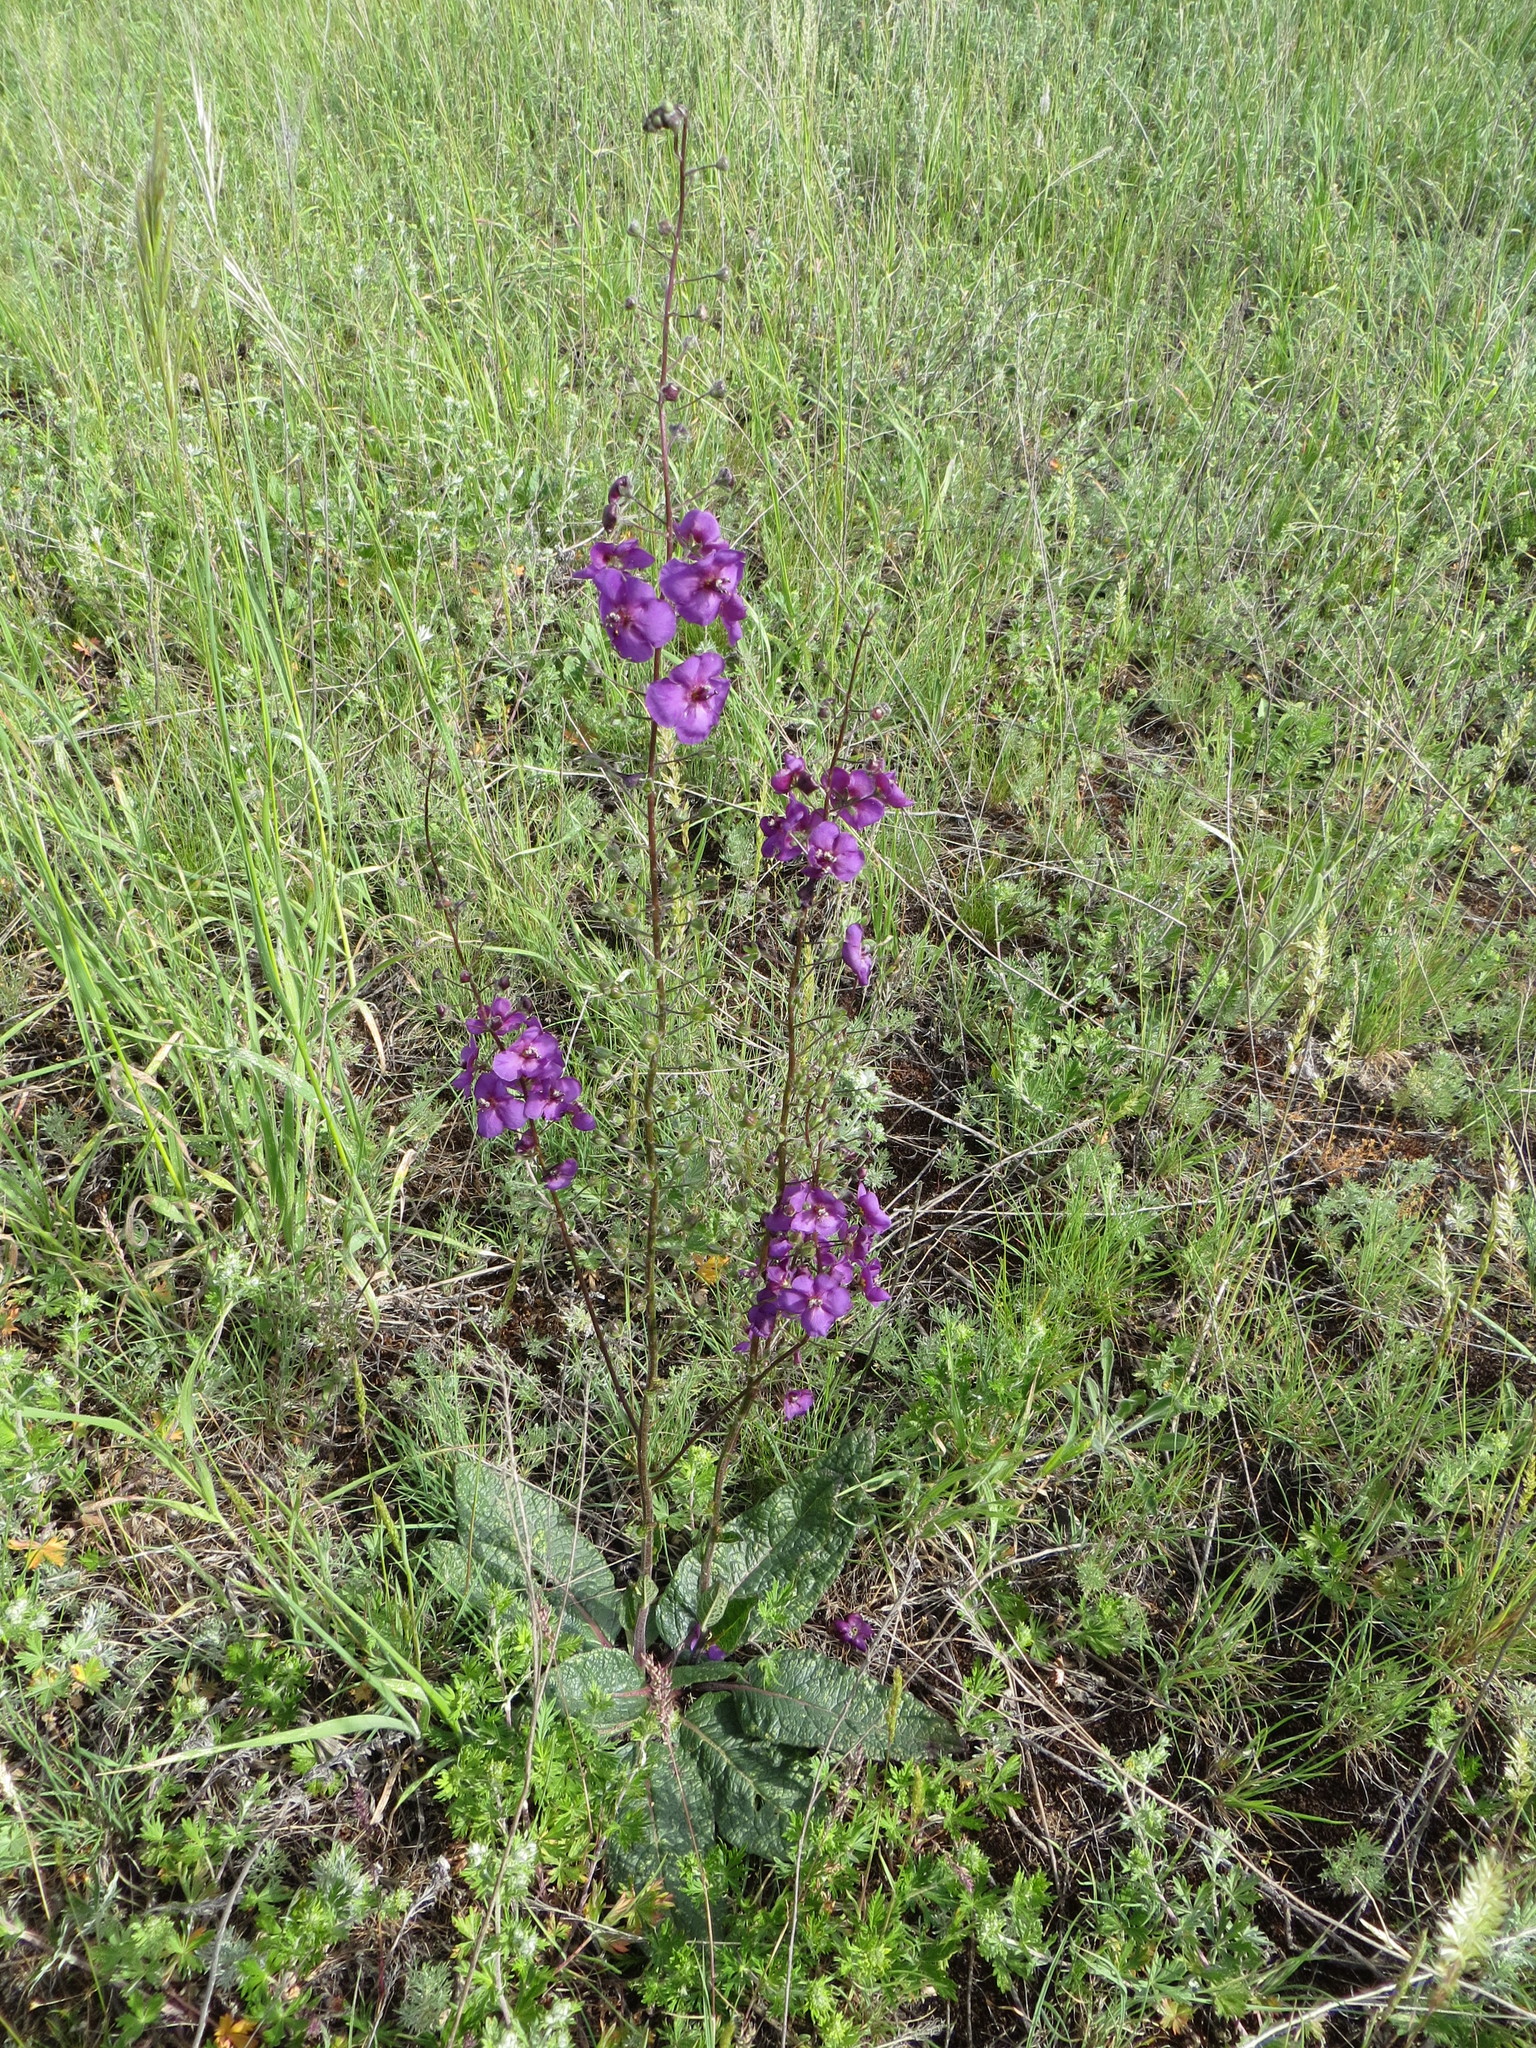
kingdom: Plantae
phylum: Tracheophyta
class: Magnoliopsida
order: Lamiales
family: Scrophulariaceae
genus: Verbascum
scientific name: Verbascum phoeniceum
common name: Purple mullein
